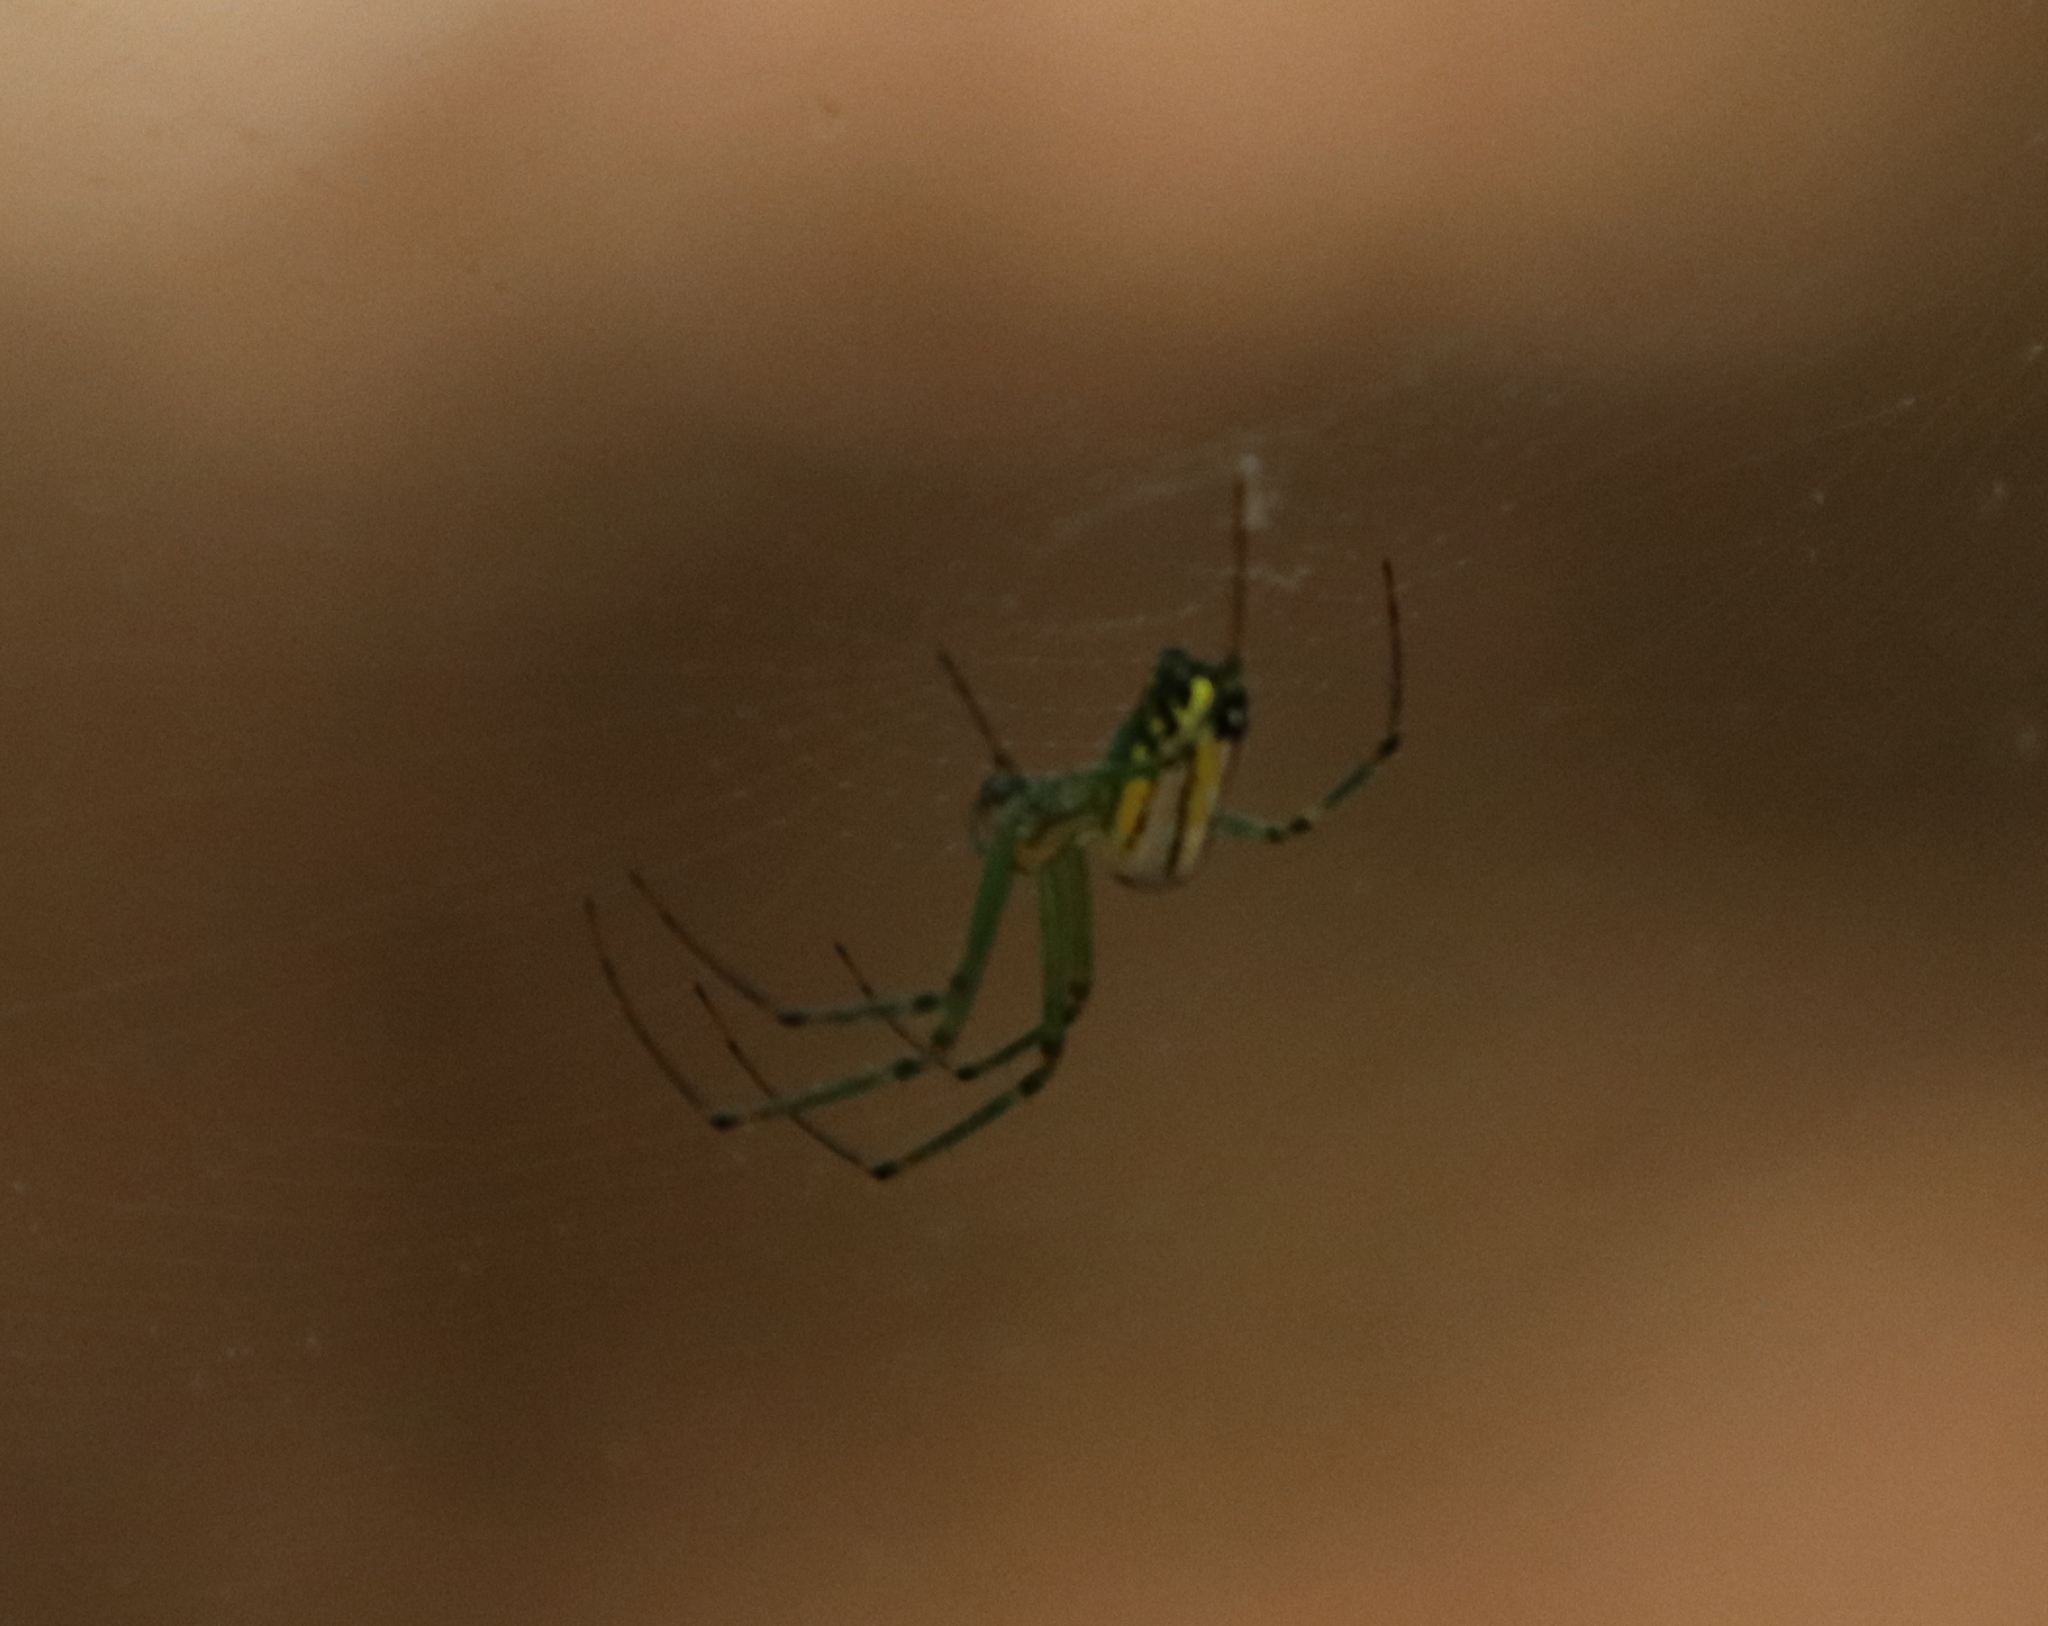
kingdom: Animalia
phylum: Arthropoda
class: Arachnida
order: Araneae
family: Tetragnathidae
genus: Leucauge
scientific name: Leucauge venusta
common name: Longjawed orb weavers
